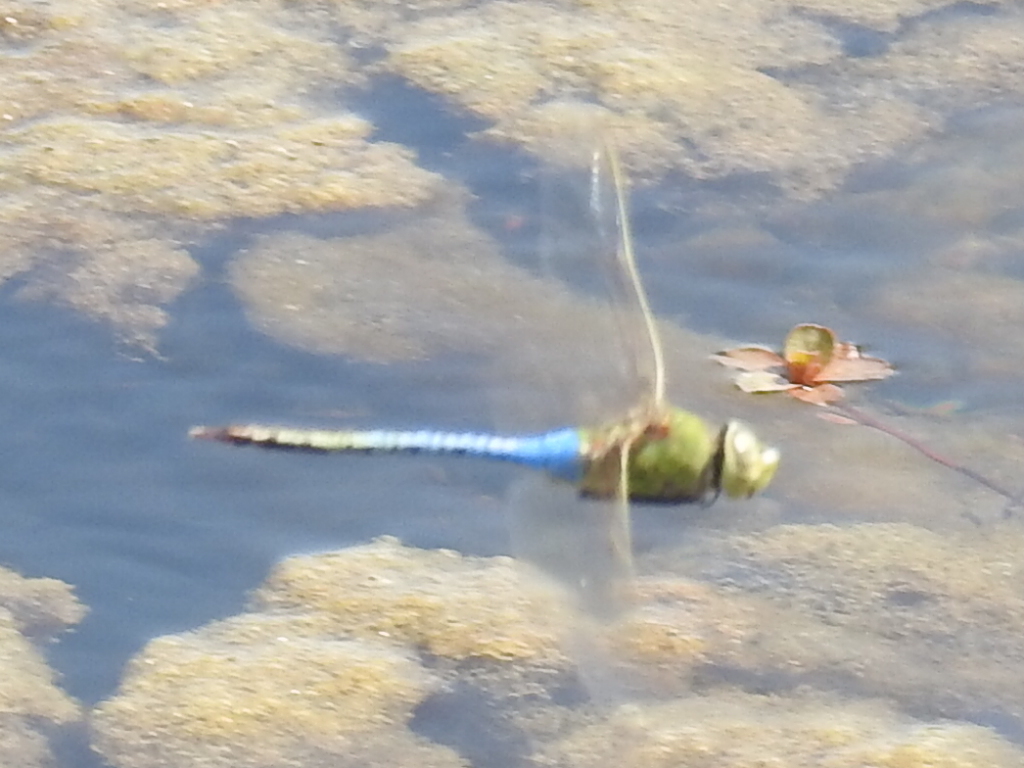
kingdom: Animalia
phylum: Arthropoda
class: Insecta
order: Odonata
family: Aeshnidae
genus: Anax
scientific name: Anax junius
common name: Common green darner
